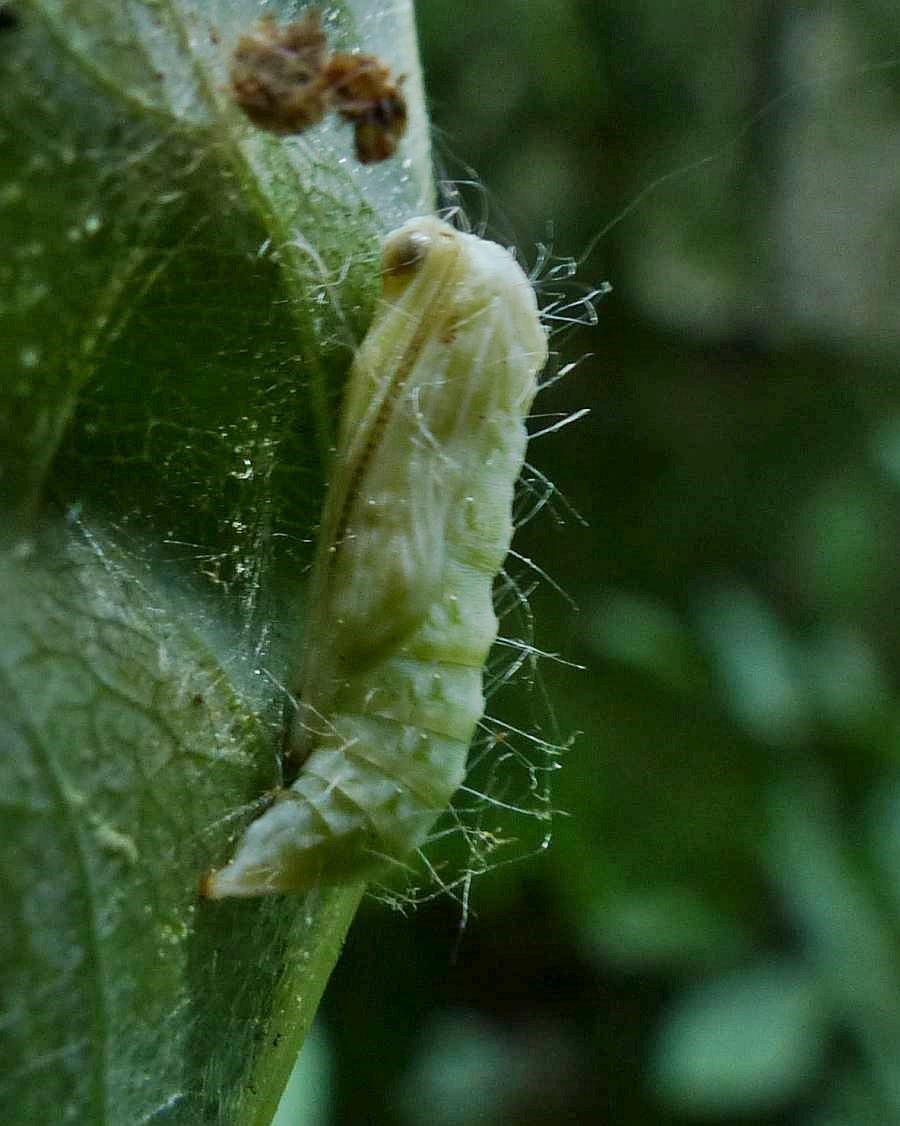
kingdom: Animalia
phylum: Arthropoda
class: Insecta
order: Lepidoptera
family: Pterophoridae
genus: Cnaemidophorus
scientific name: Cnaemidophorus rhododactyla
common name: Rose plume
